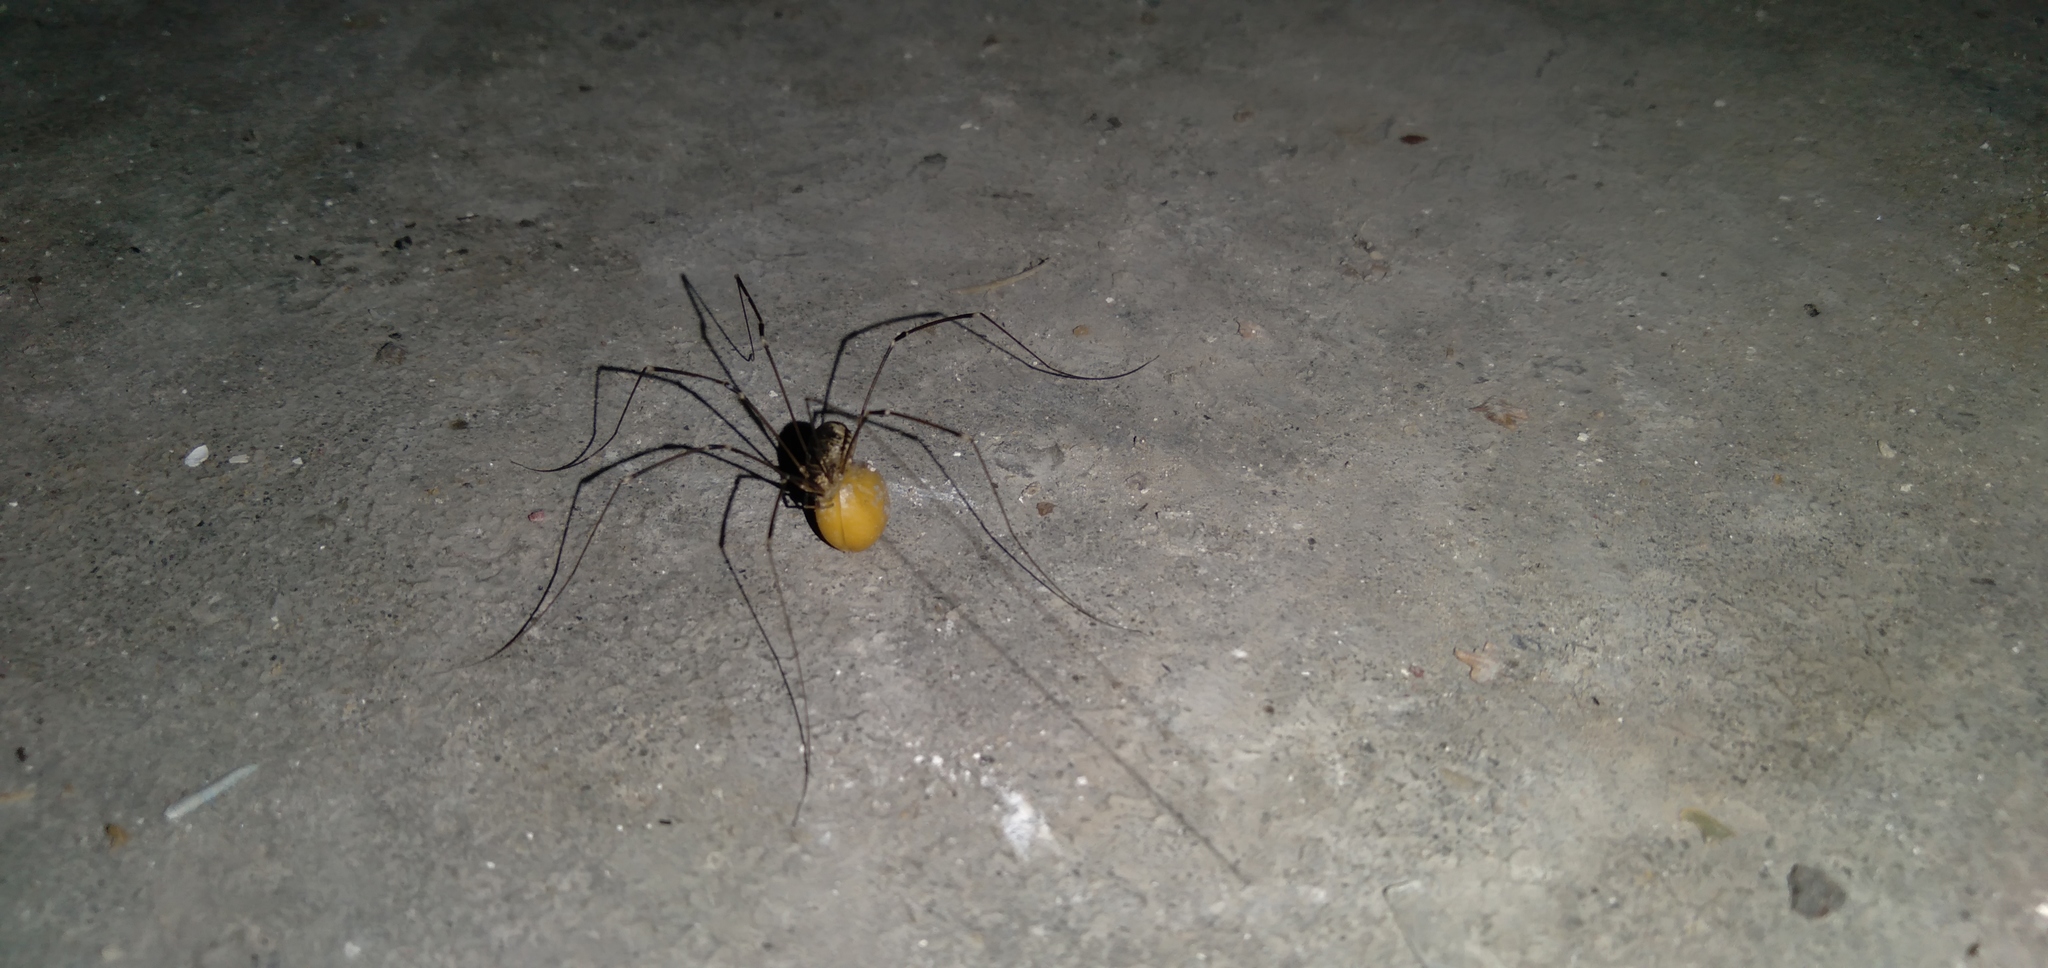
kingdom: Animalia
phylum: Arthropoda
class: Arachnida
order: Opiliones
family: Sclerosomatidae
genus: Leiobunum
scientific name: Leiobunum gracile
